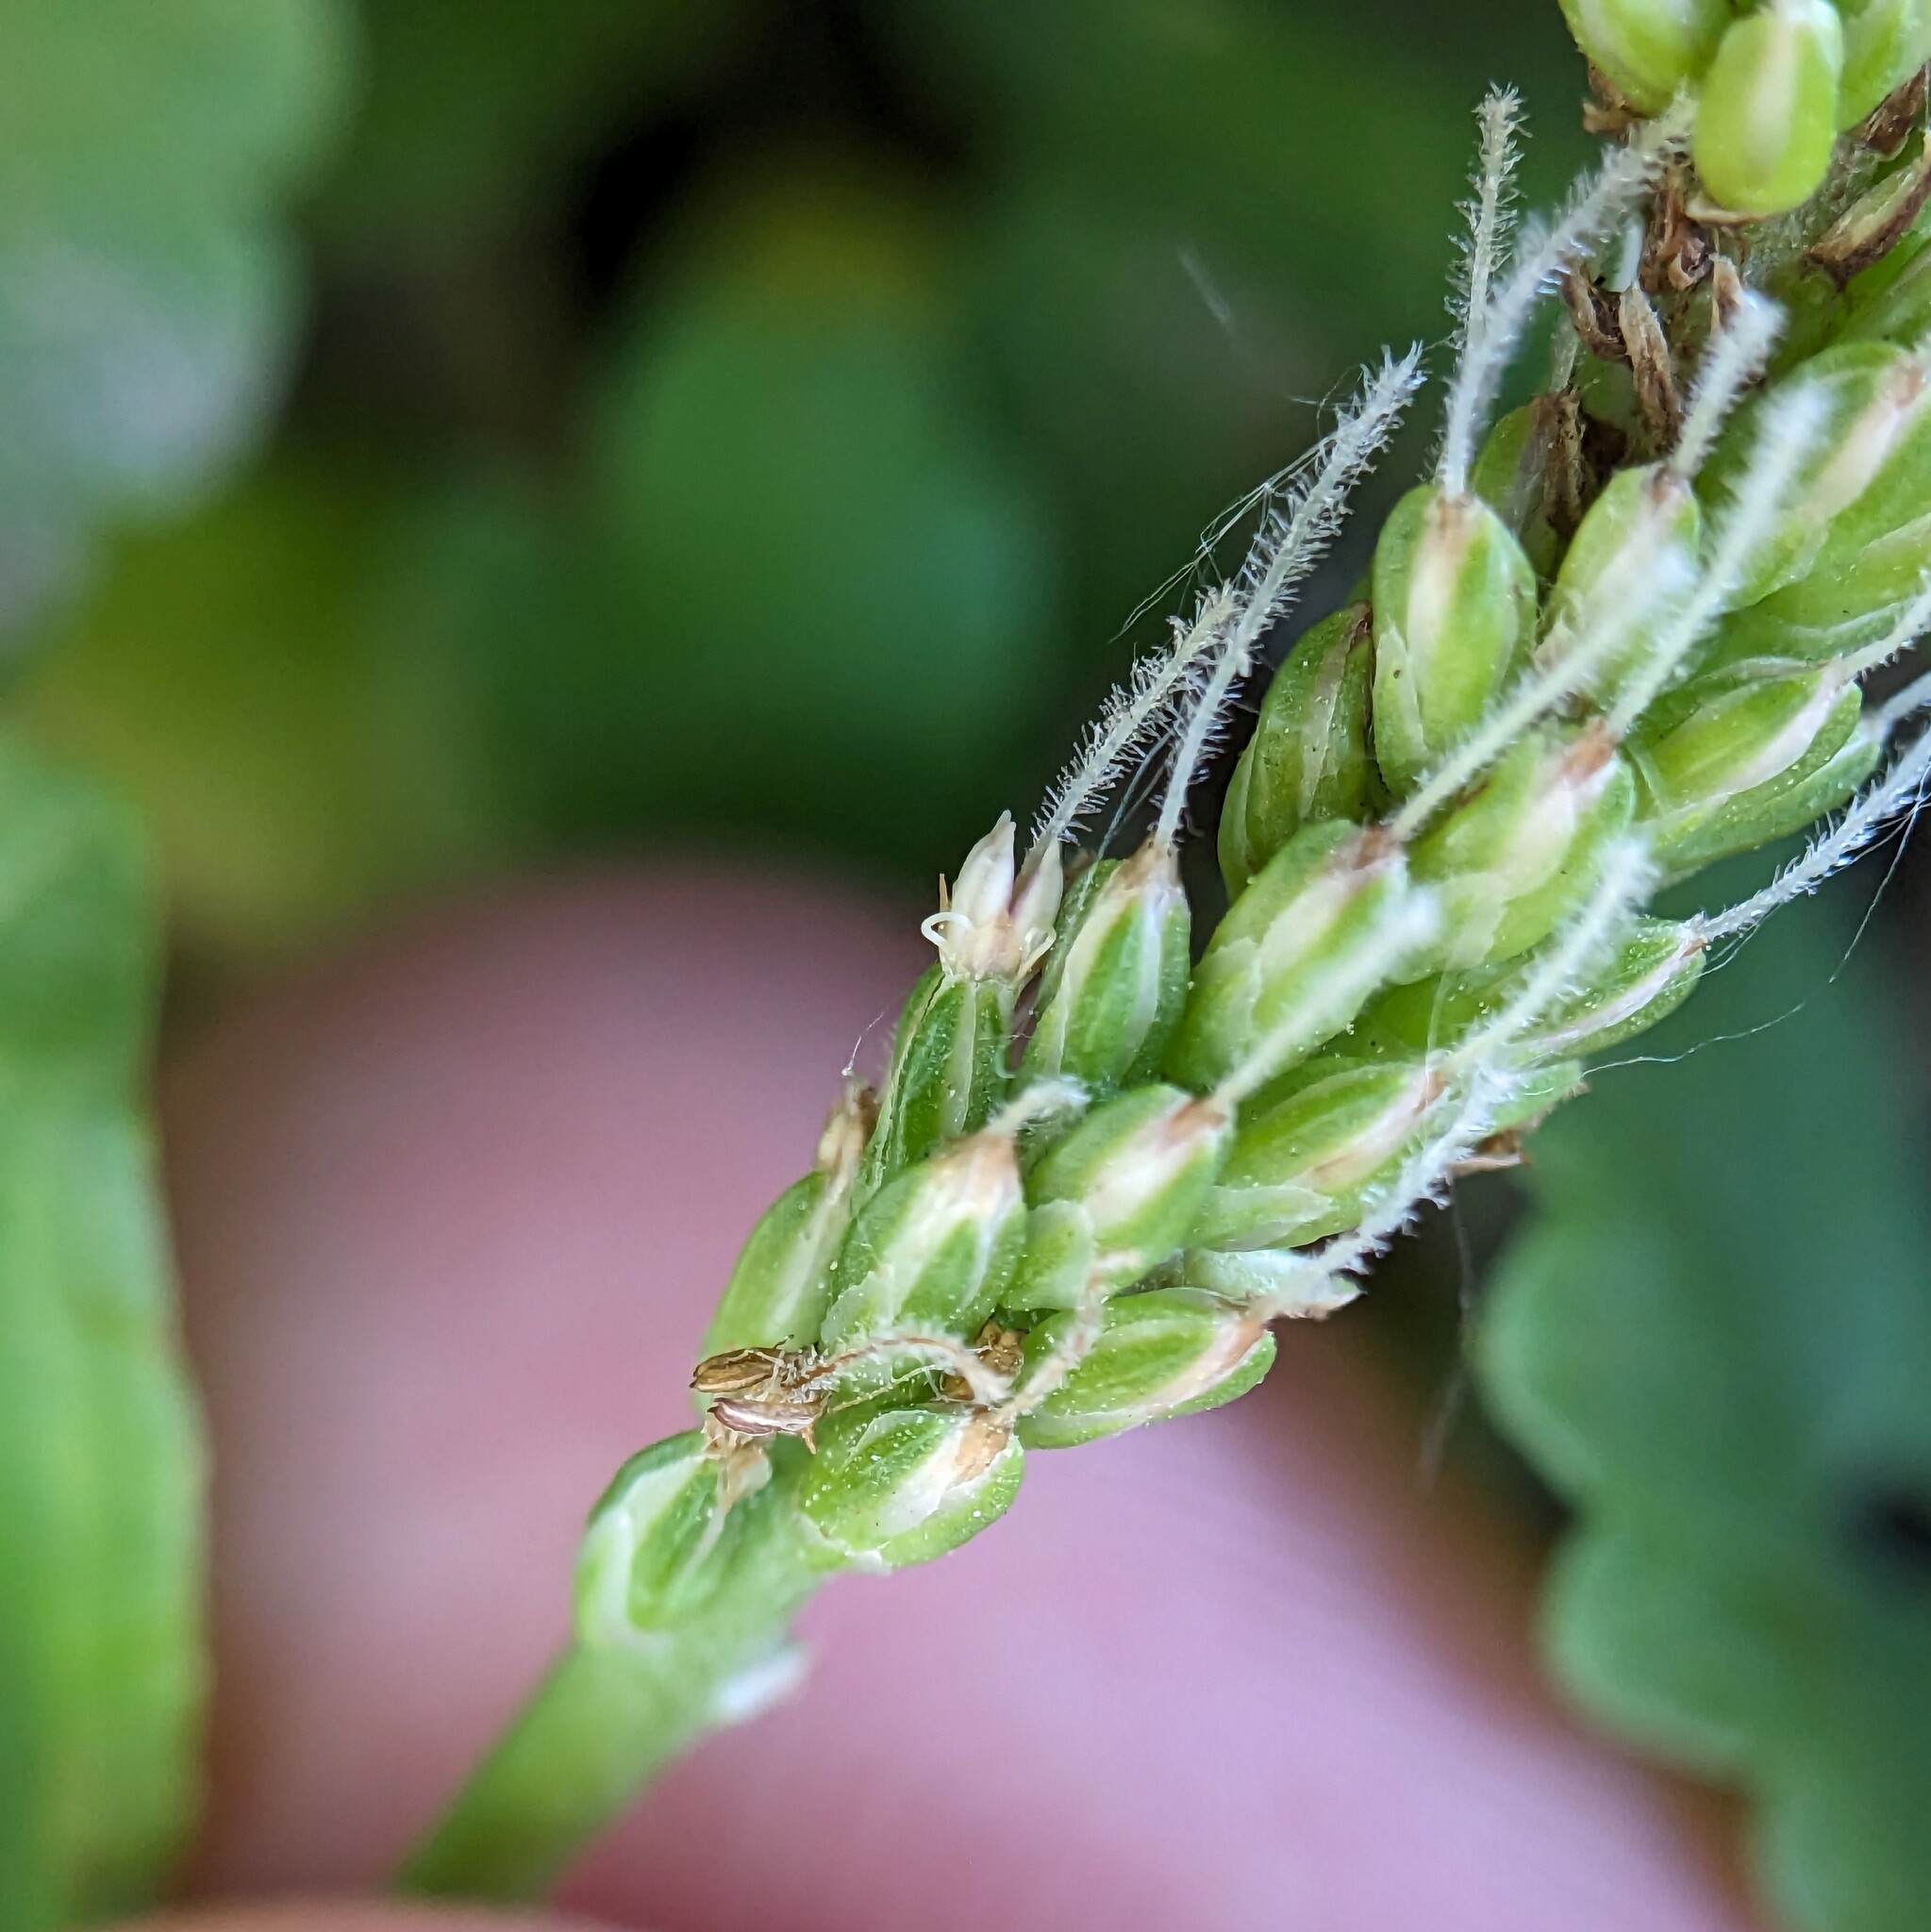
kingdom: Plantae
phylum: Tracheophyta
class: Magnoliopsida
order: Lamiales
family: Plantaginaceae
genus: Plantago
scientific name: Plantago rugelii
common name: American plantain
